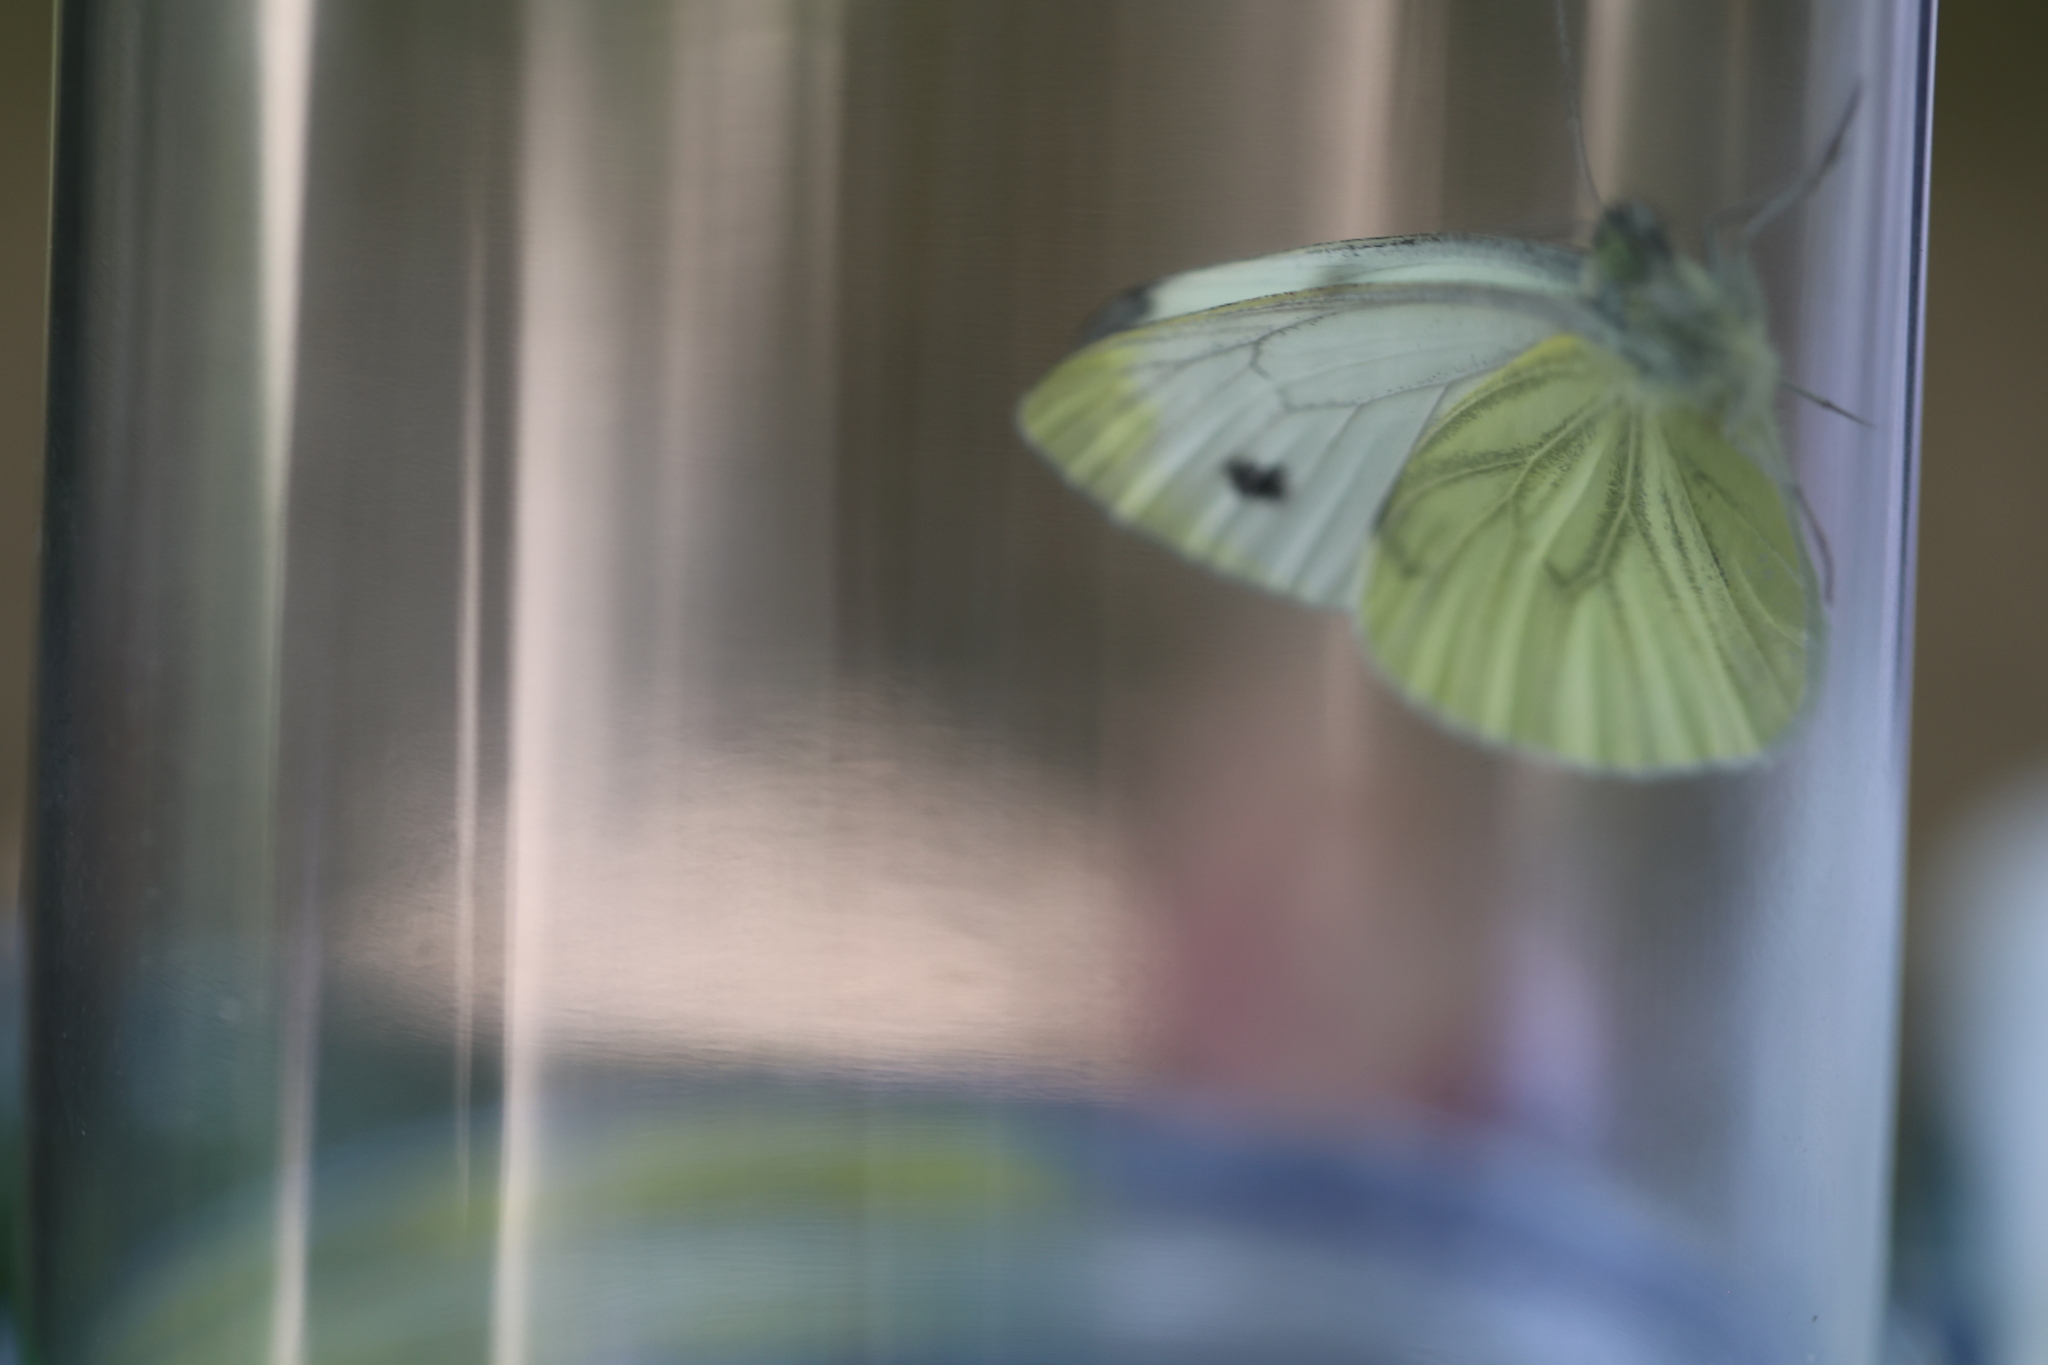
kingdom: Animalia
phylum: Arthropoda
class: Insecta
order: Lepidoptera
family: Pieridae
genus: Pieris
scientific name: Pieris napi
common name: Green-veined white
